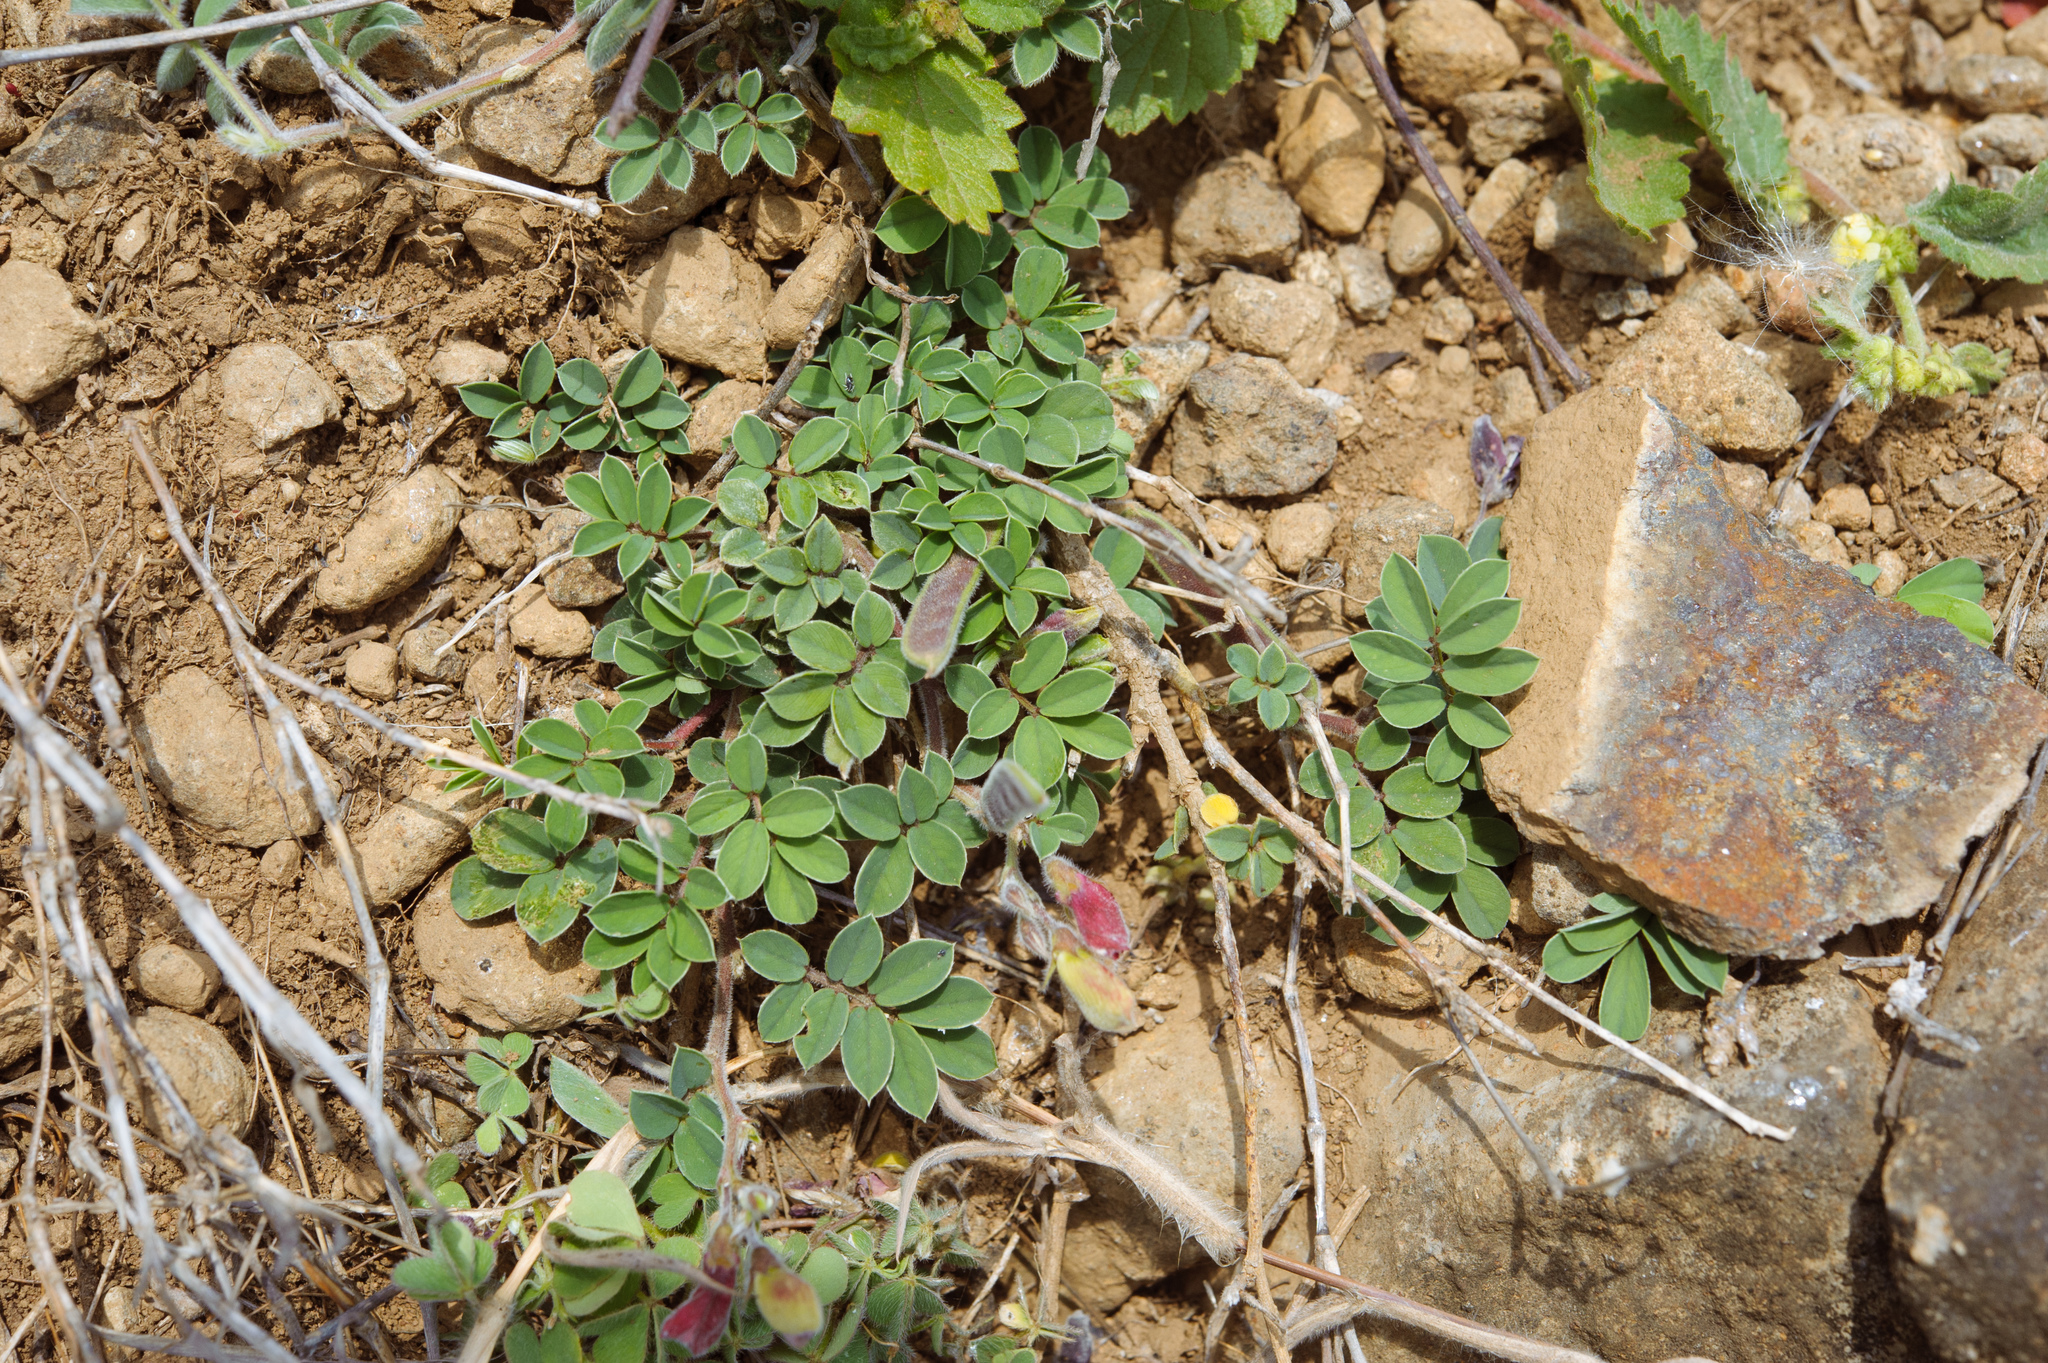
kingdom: Plantae
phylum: Tracheophyta
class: Magnoliopsida
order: Fabales
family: Fabaceae
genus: Tephrosia
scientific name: Tephrosia obovata
